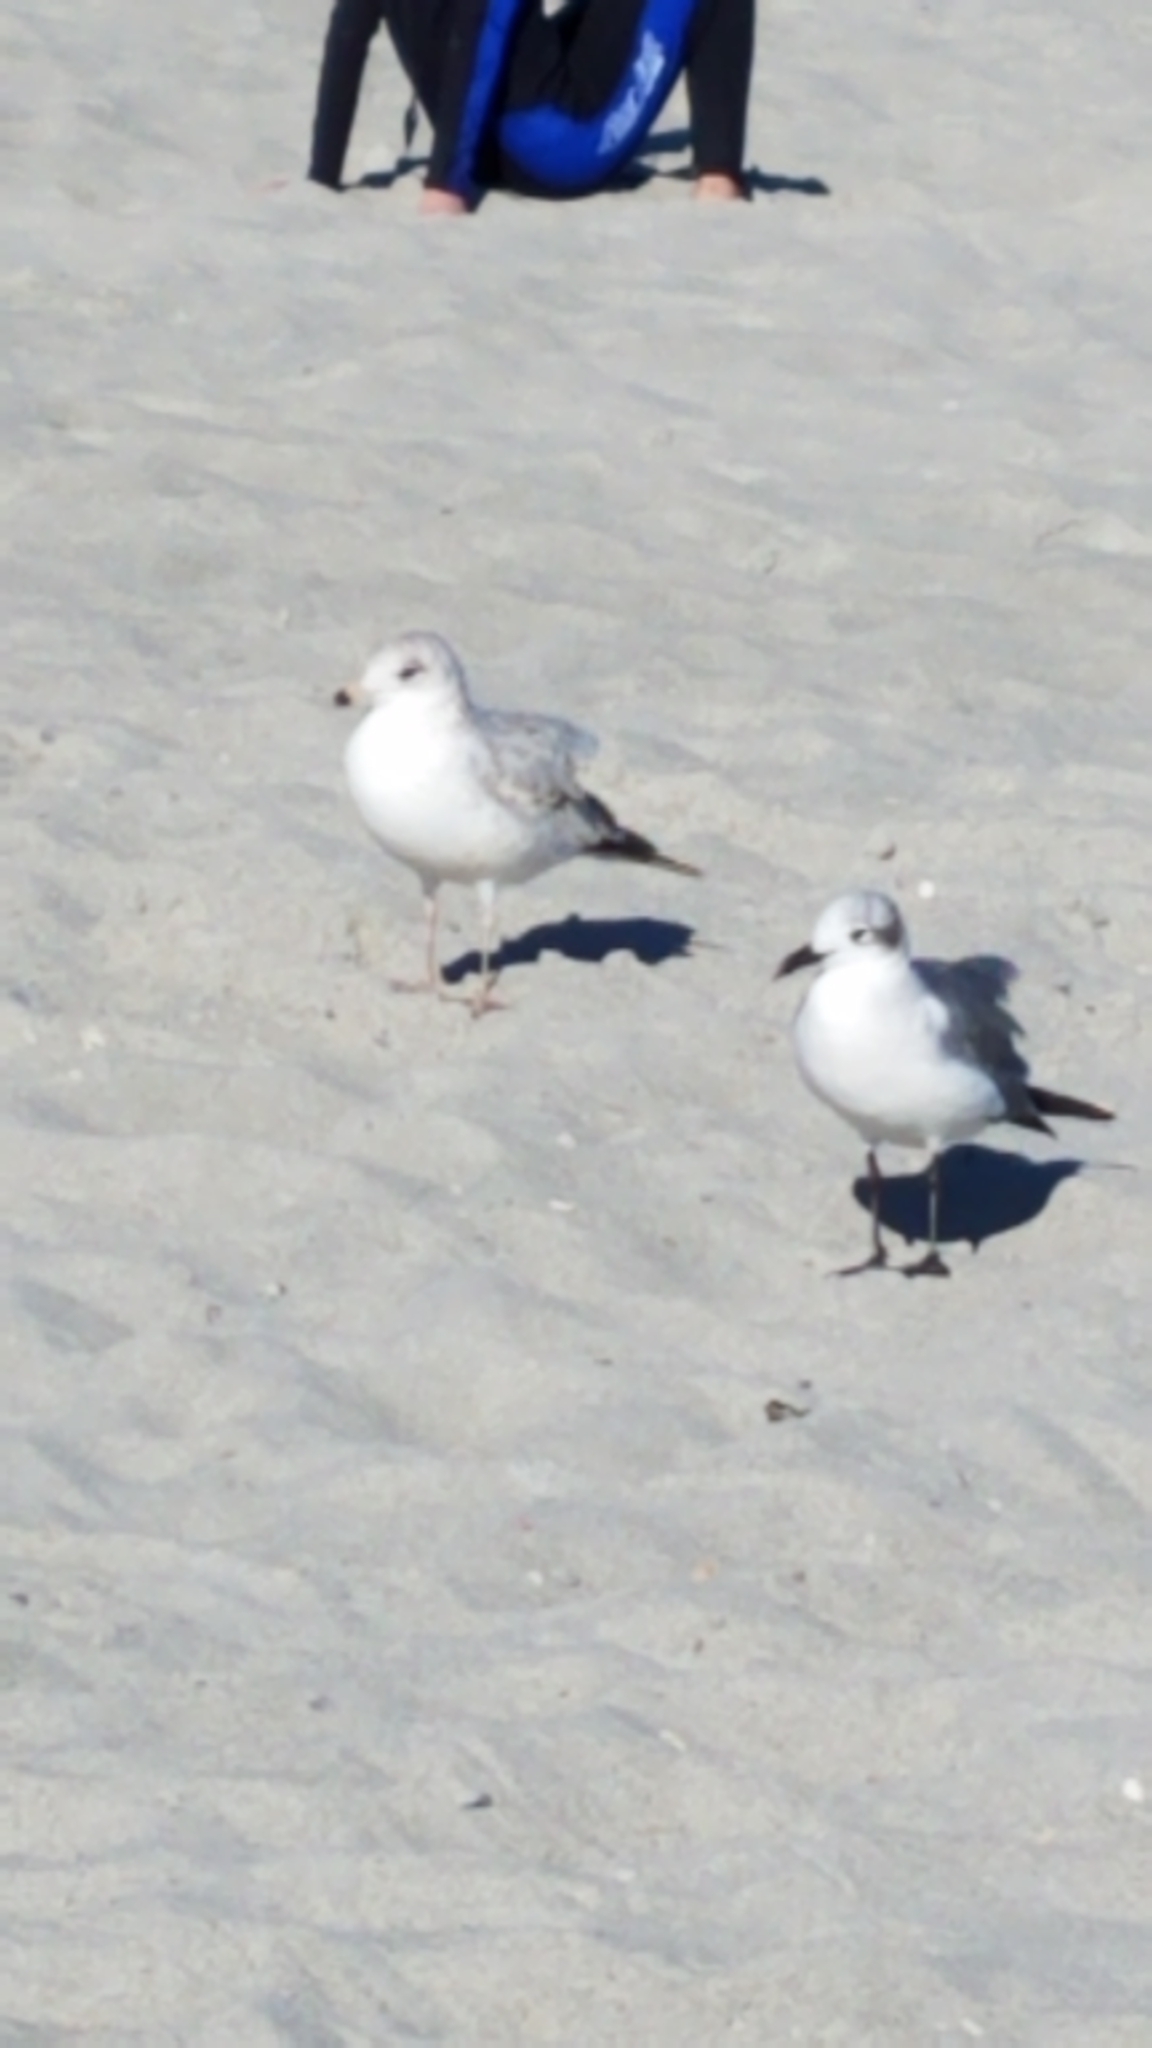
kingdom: Animalia
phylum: Chordata
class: Aves
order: Charadriiformes
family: Laridae
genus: Larus
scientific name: Larus delawarensis
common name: Ring-billed gull
